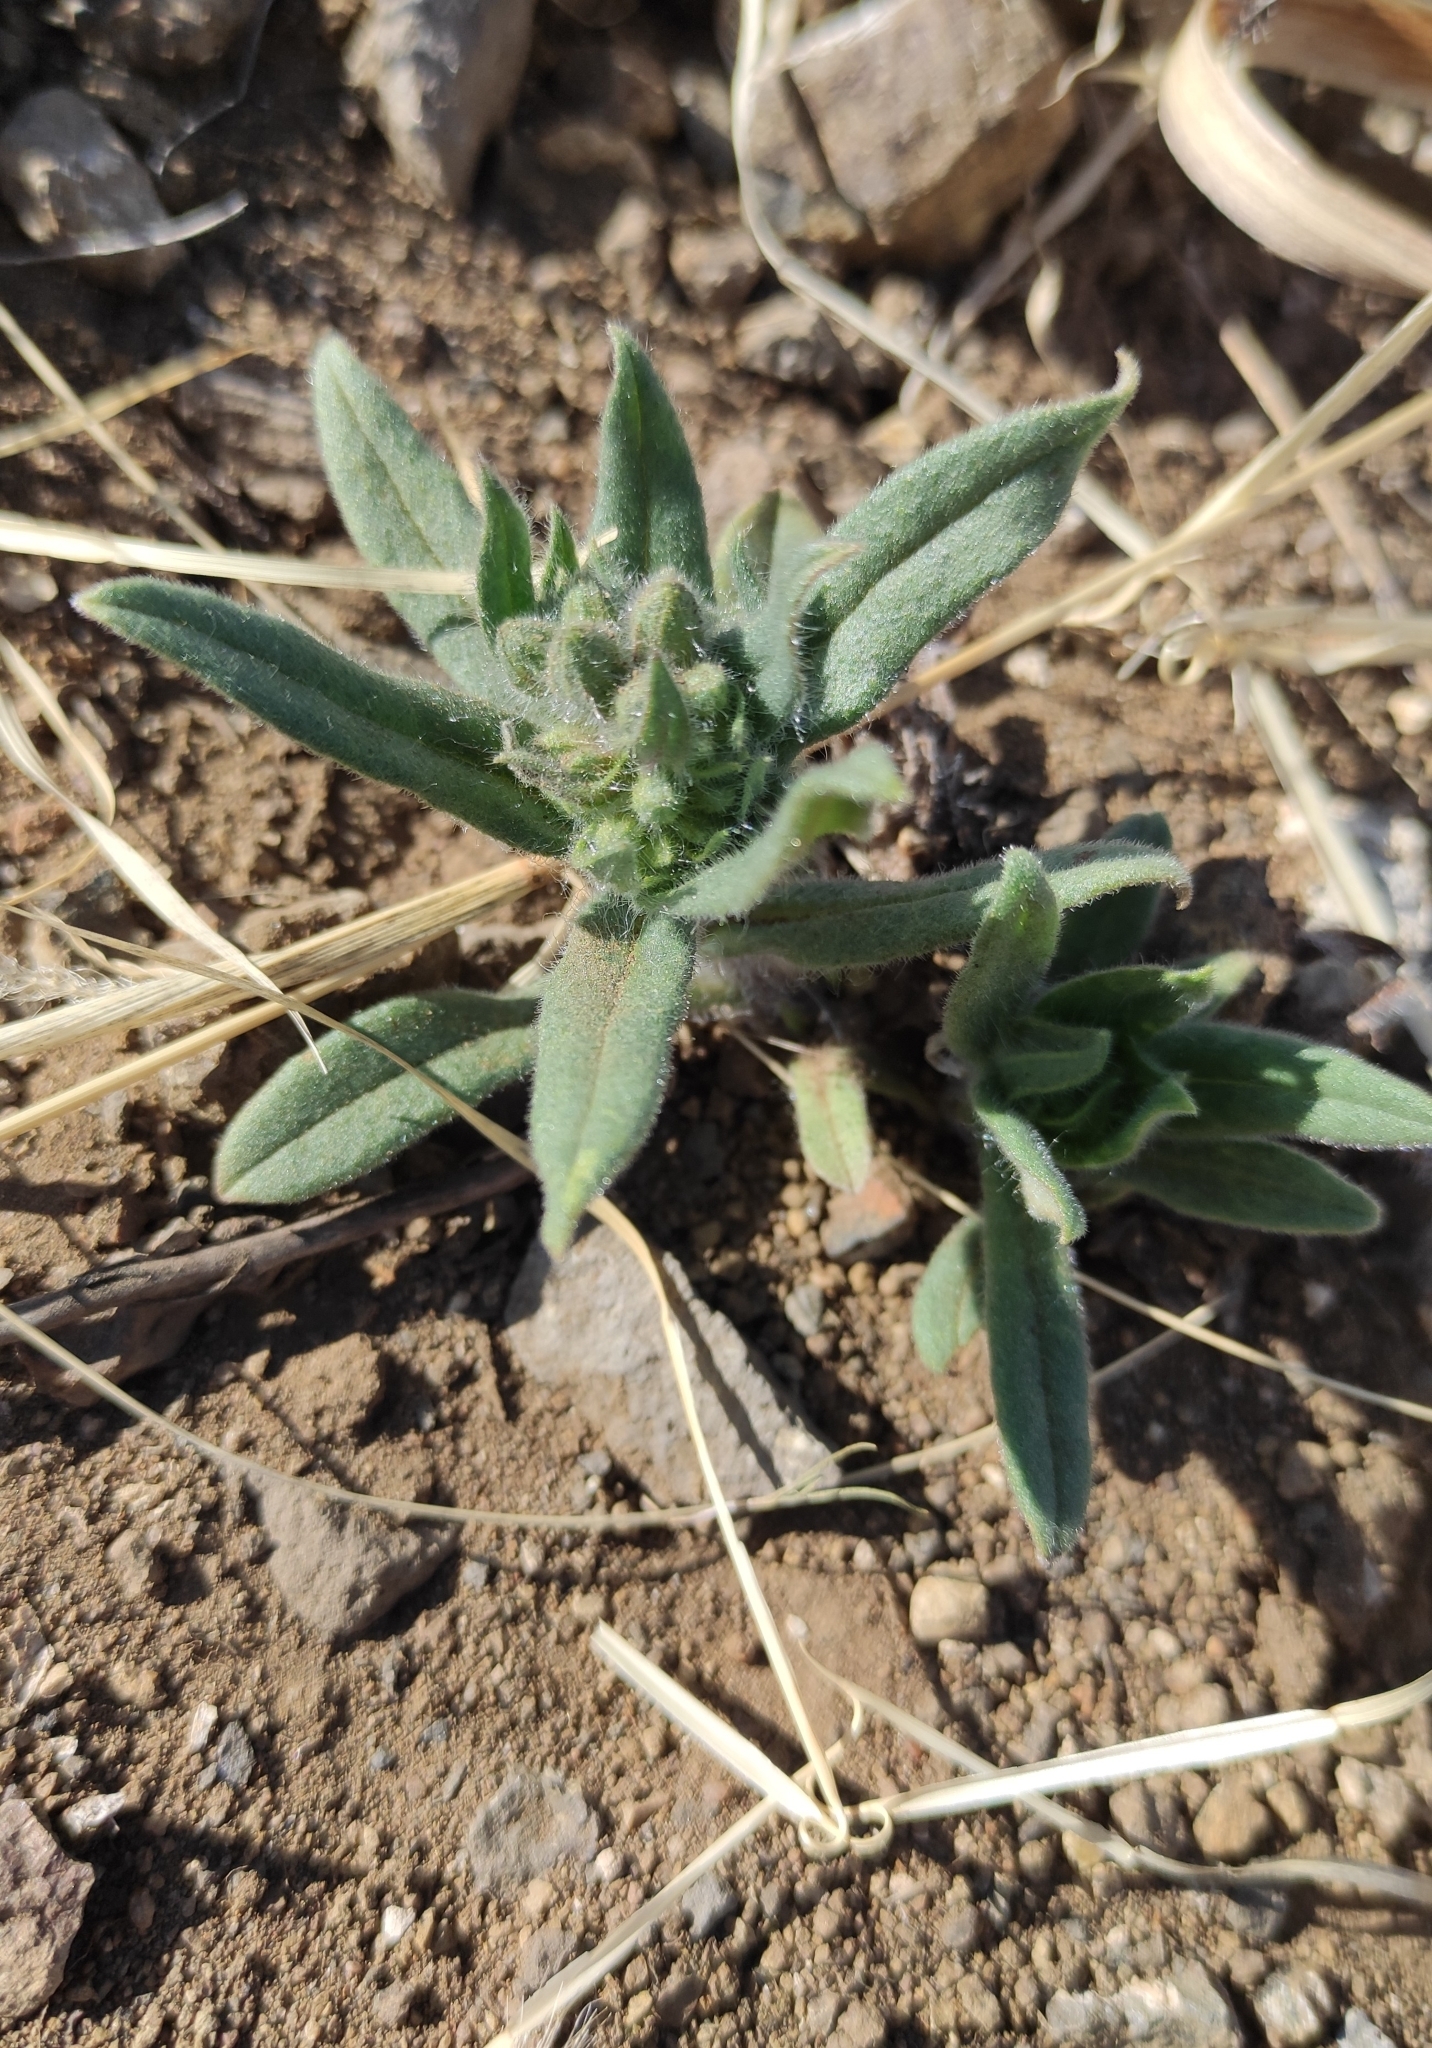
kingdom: Plantae
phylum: Tracheophyta
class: Magnoliopsida
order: Boraginales
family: Boraginaceae
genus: Nonea
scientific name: Nonea pulla
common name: Brown nonea
